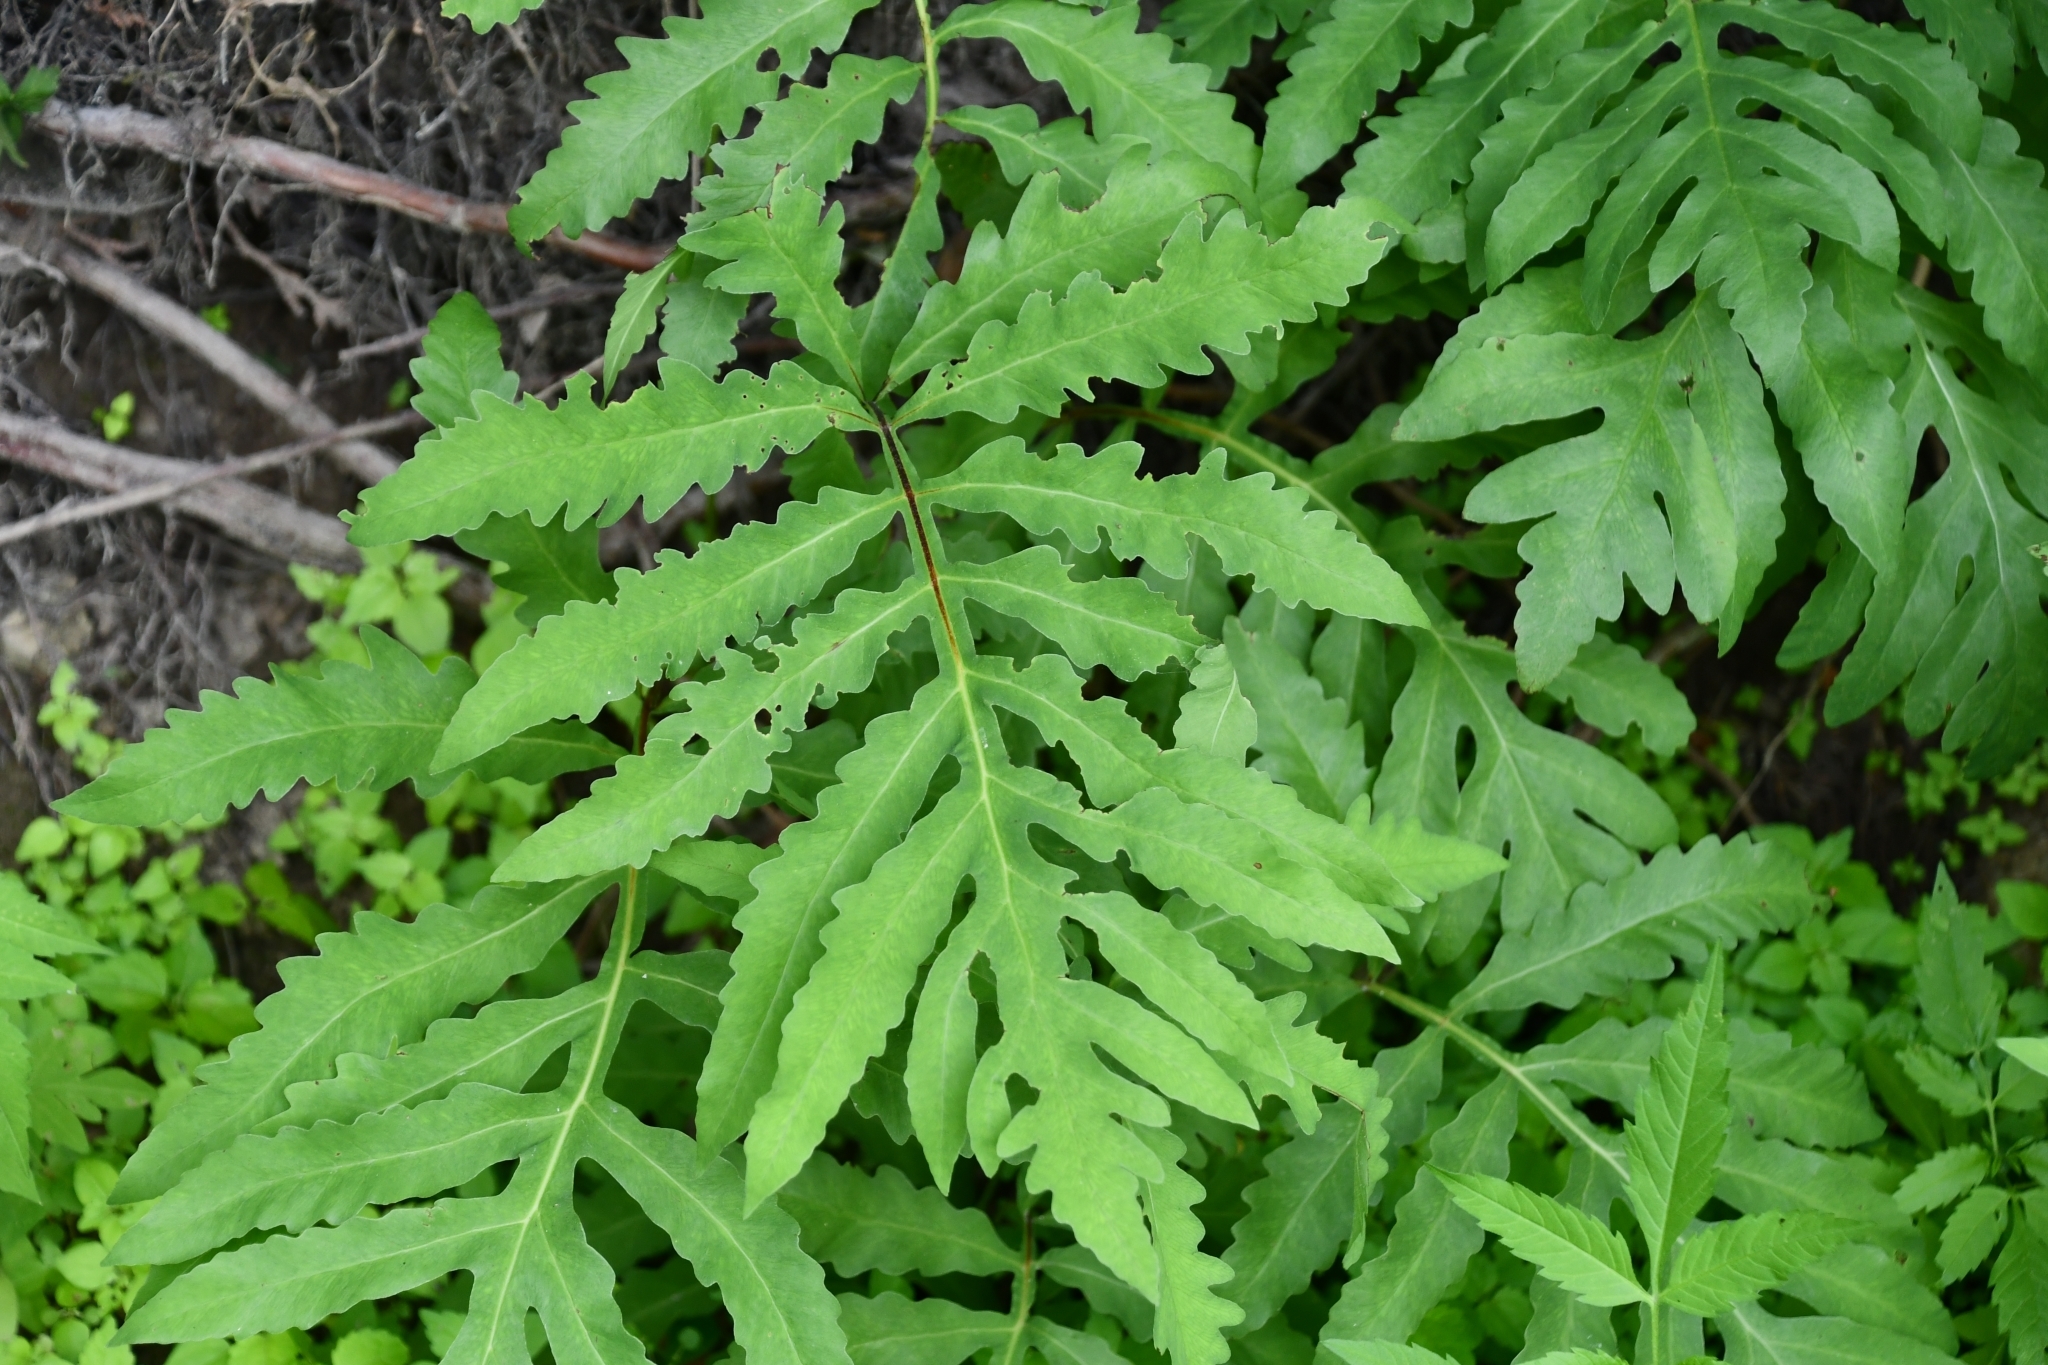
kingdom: Plantae
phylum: Tracheophyta
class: Polypodiopsida
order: Polypodiales
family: Onocleaceae
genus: Onoclea
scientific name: Onoclea sensibilis
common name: Sensitive fern
